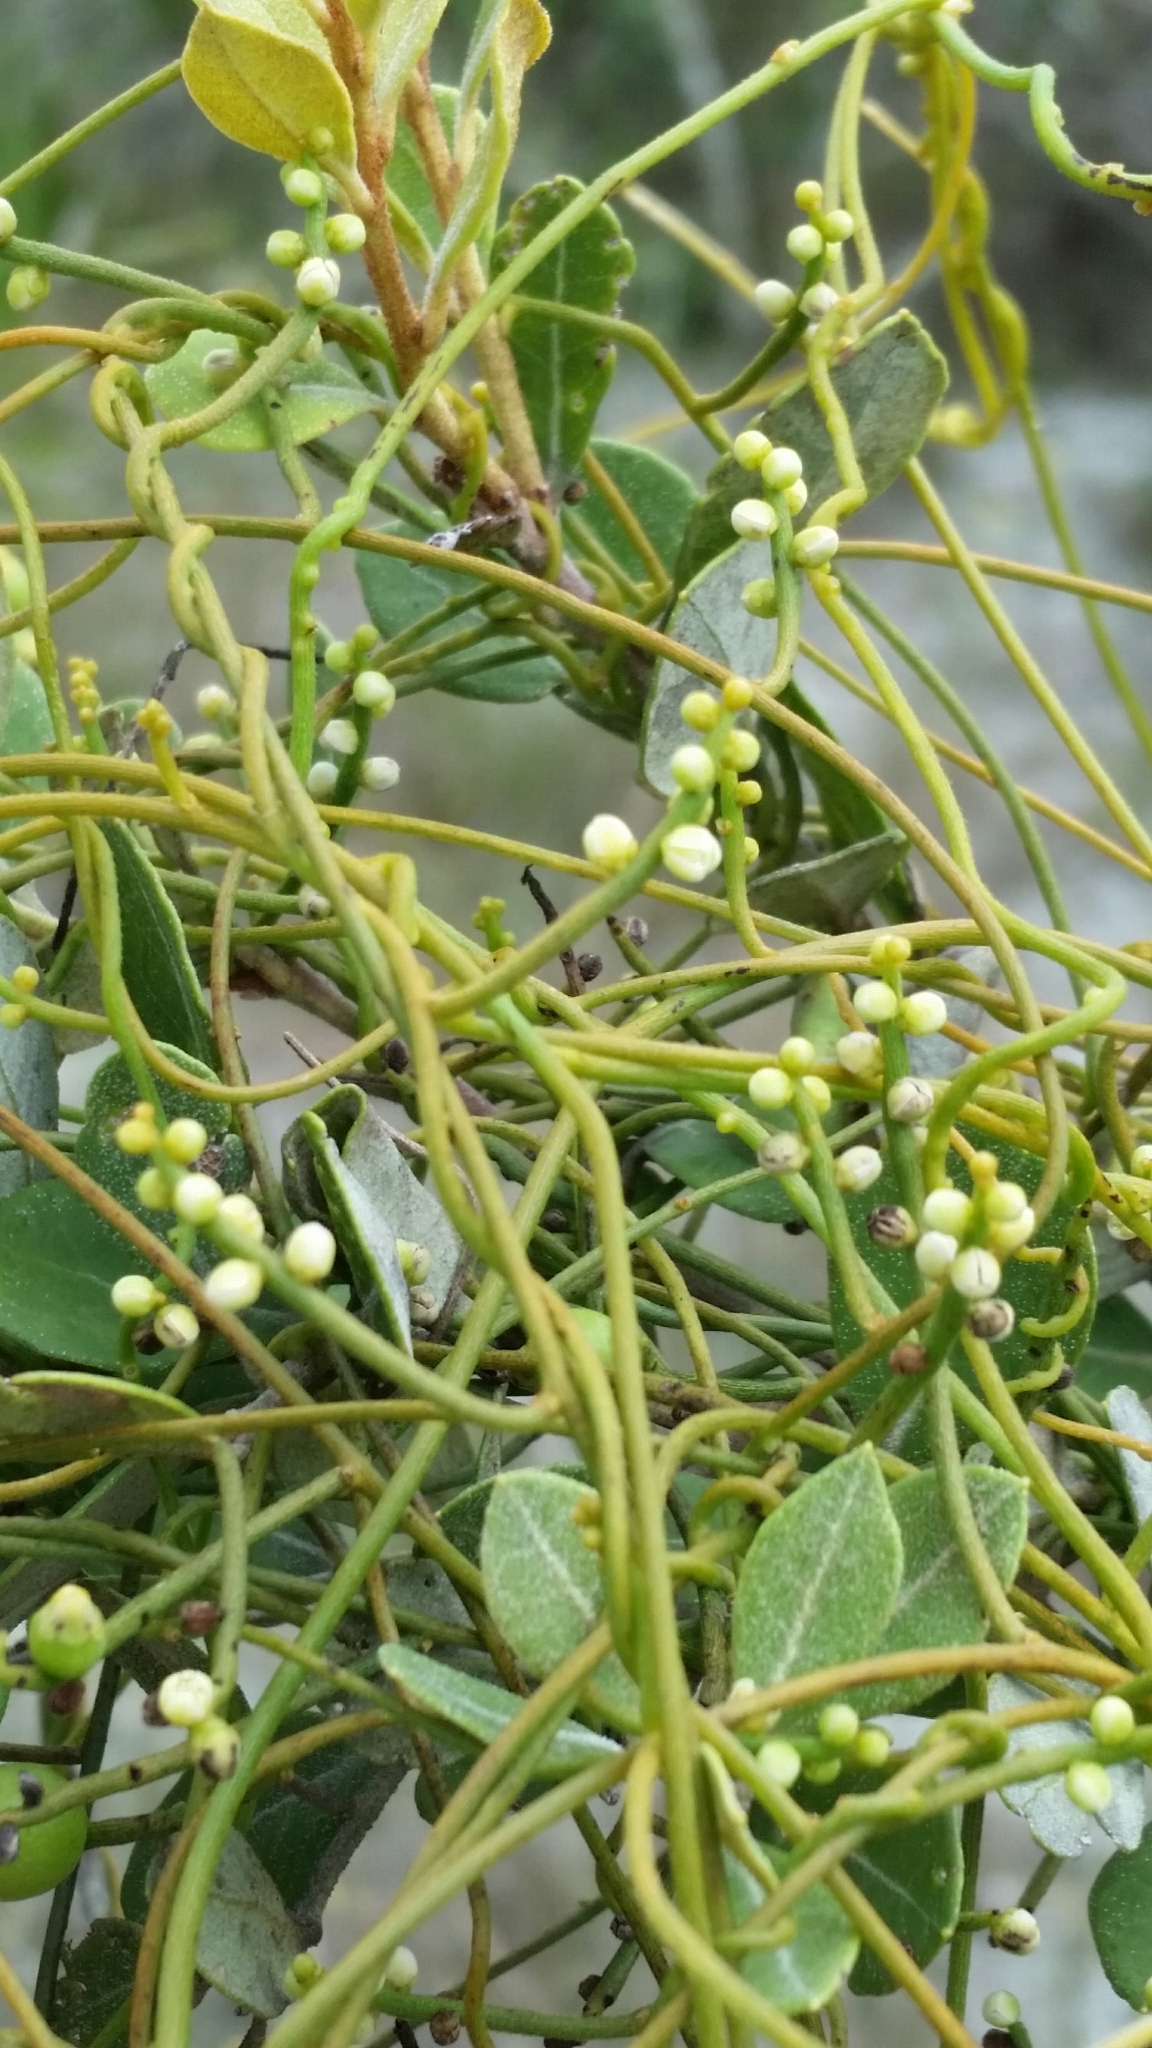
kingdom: Plantae
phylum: Tracheophyta
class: Magnoliopsida
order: Laurales
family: Lauraceae
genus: Cassytha
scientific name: Cassytha filiformis
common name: Dodder-laurel
